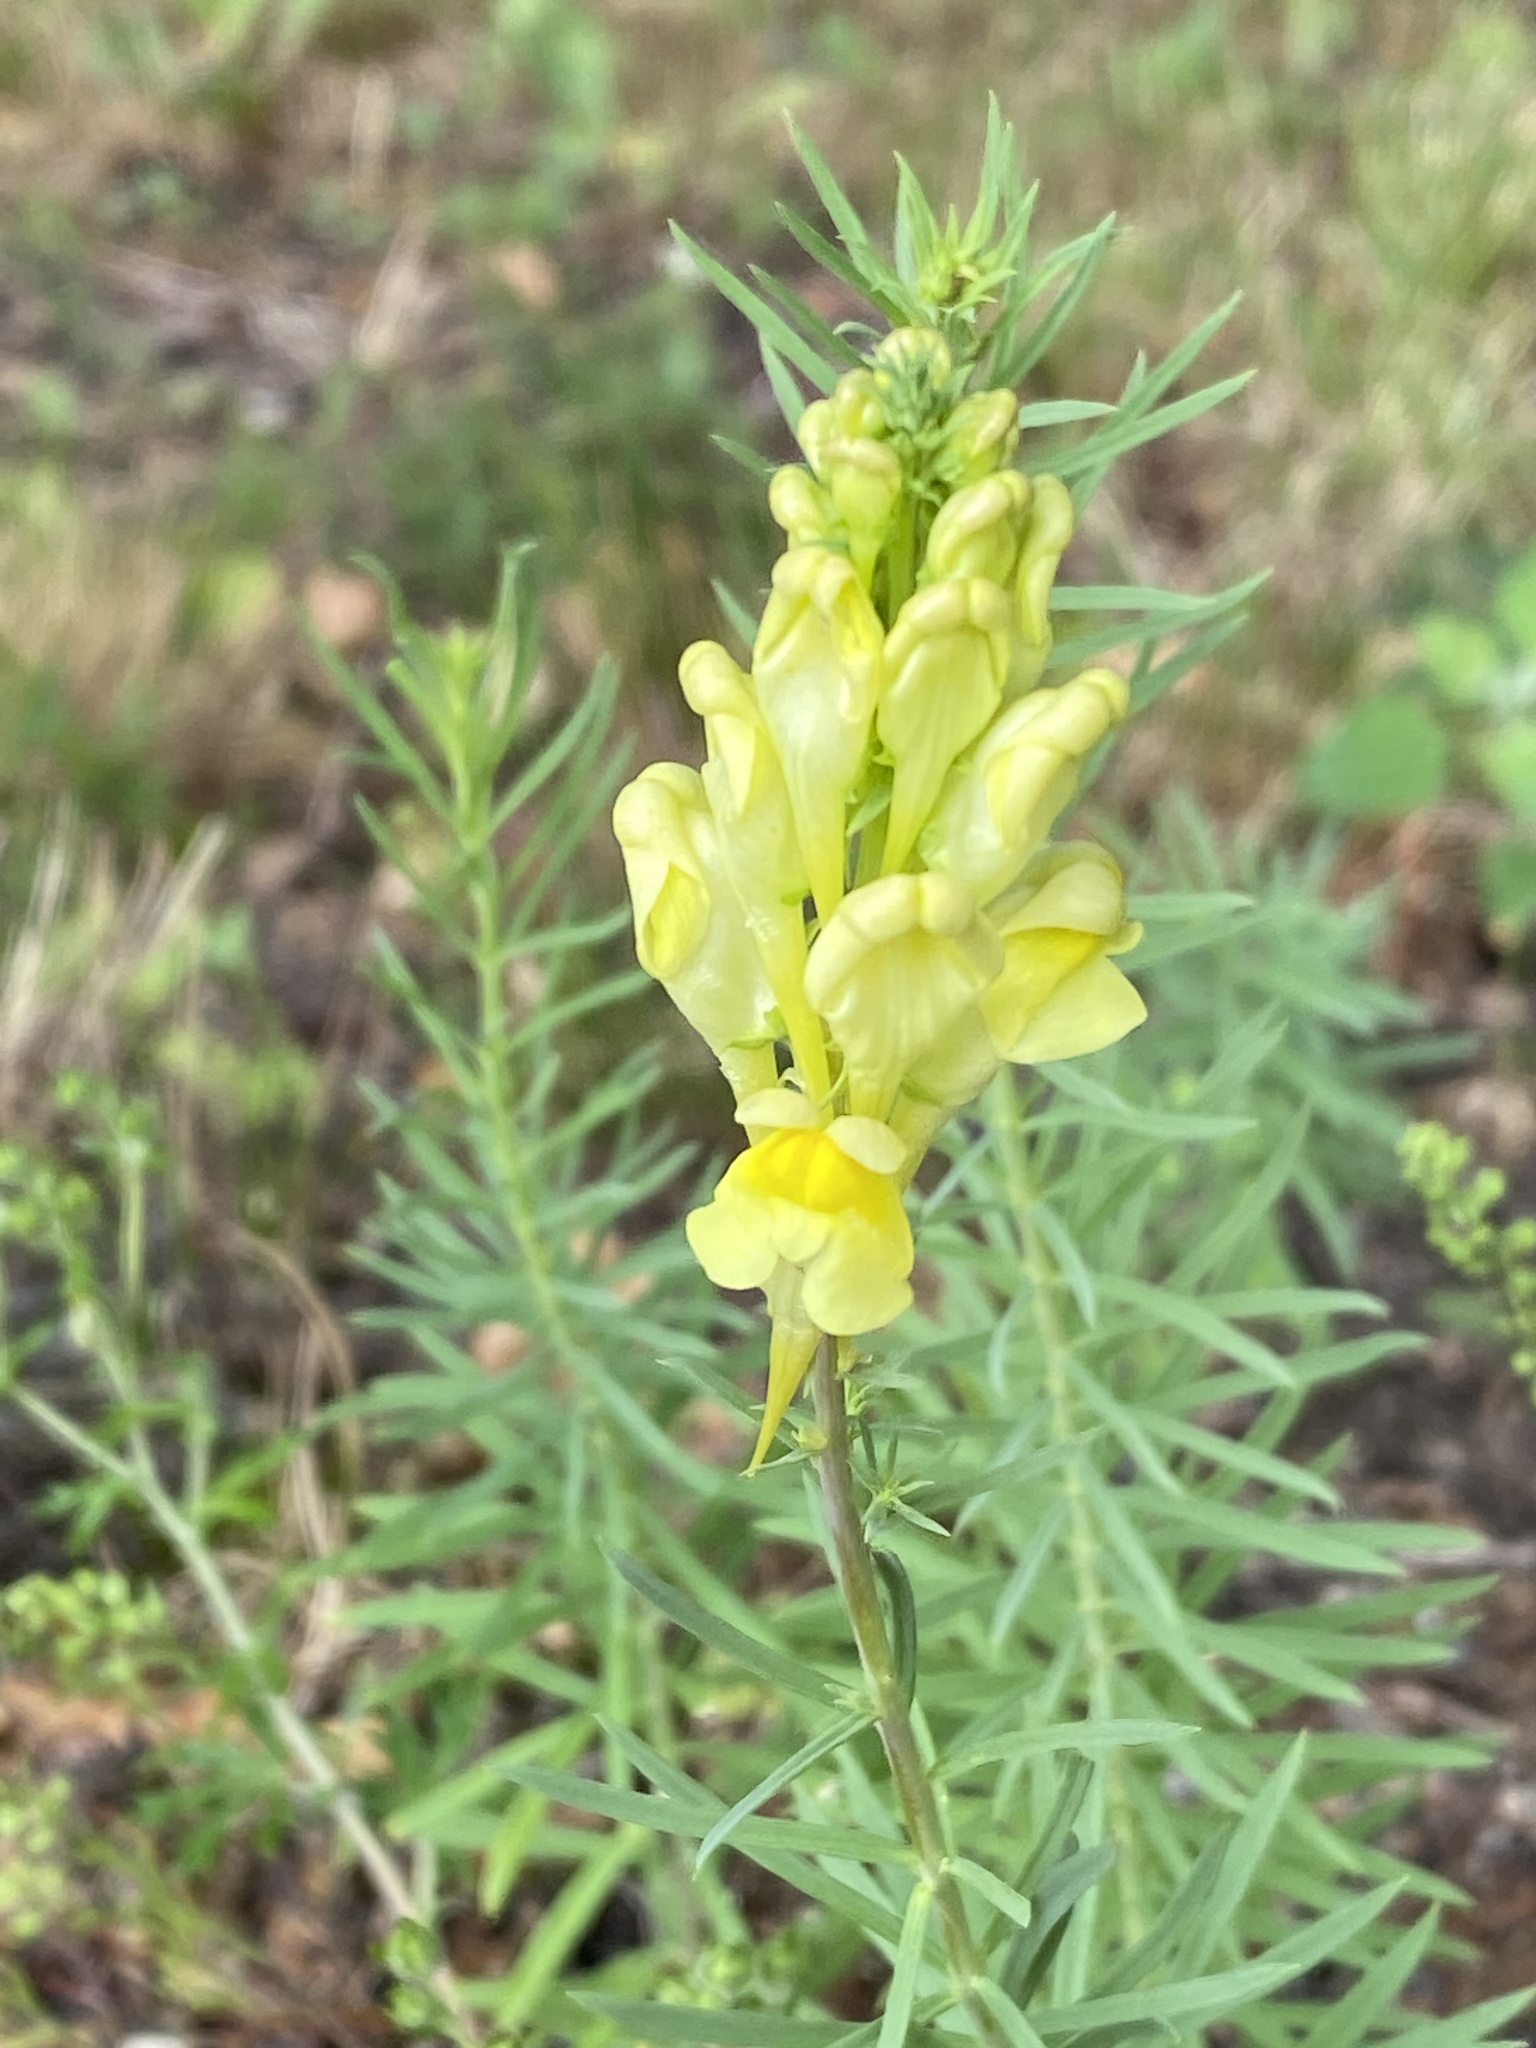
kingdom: Plantae
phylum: Tracheophyta
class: Magnoliopsida
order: Lamiales
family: Plantaginaceae
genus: Linaria
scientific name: Linaria vulgaris
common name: Butter and eggs
